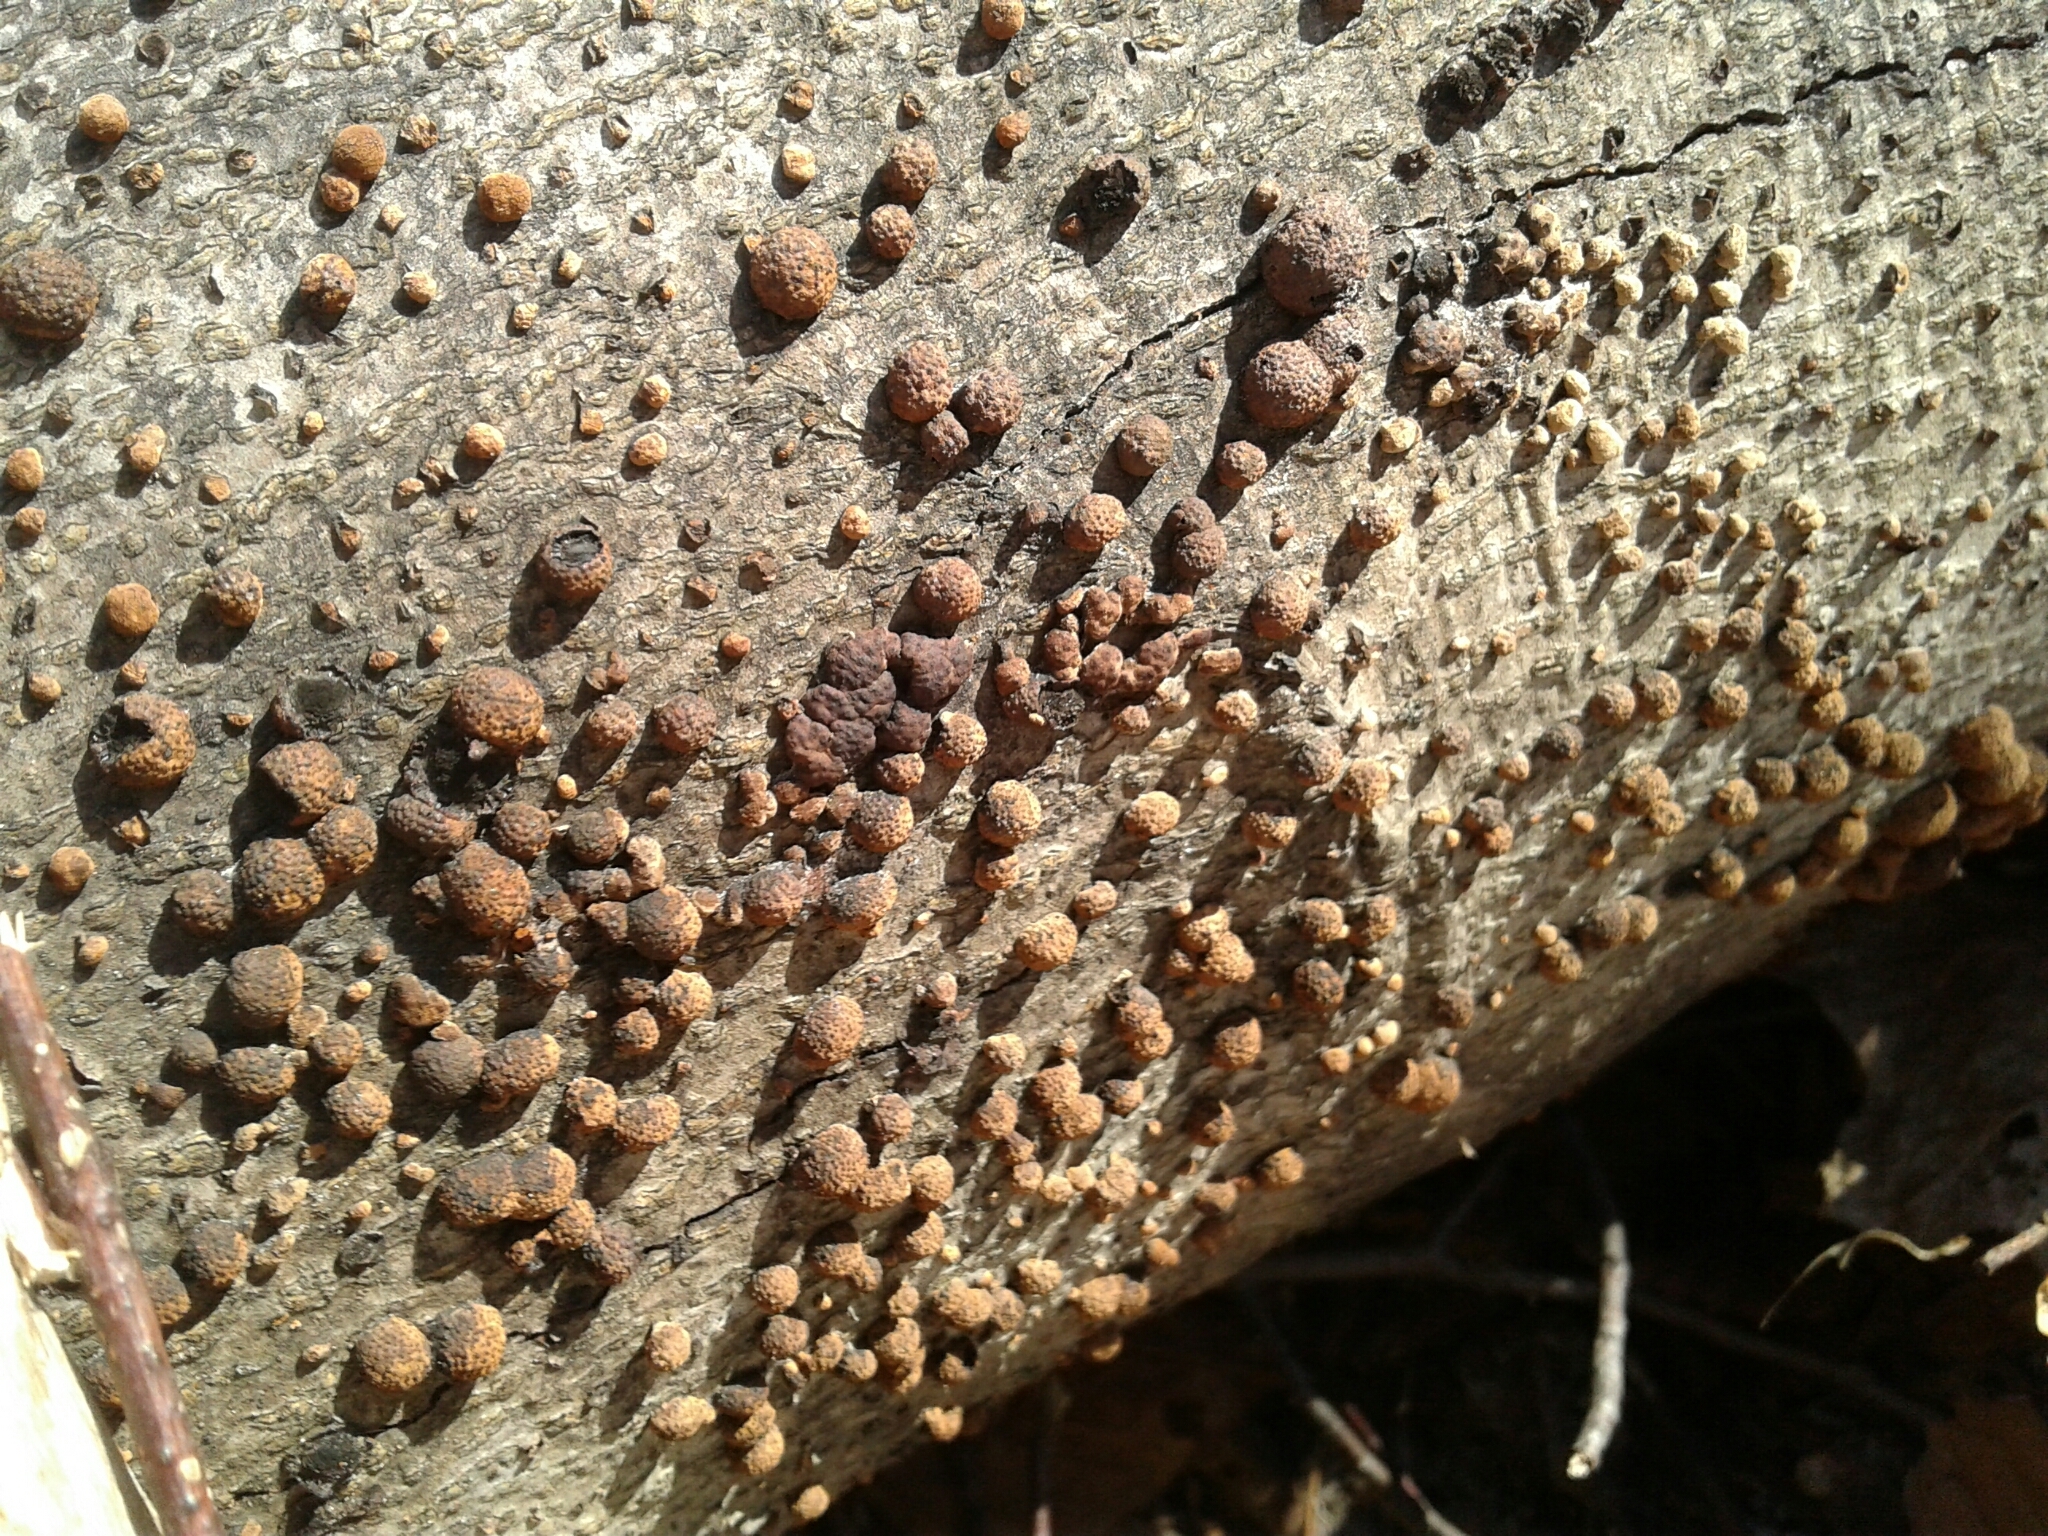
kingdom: Fungi
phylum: Ascomycota
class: Sordariomycetes
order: Xylariales
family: Hypoxylaceae
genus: Hypoxylon
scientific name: Hypoxylon fragiforme
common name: Beech woodwart
